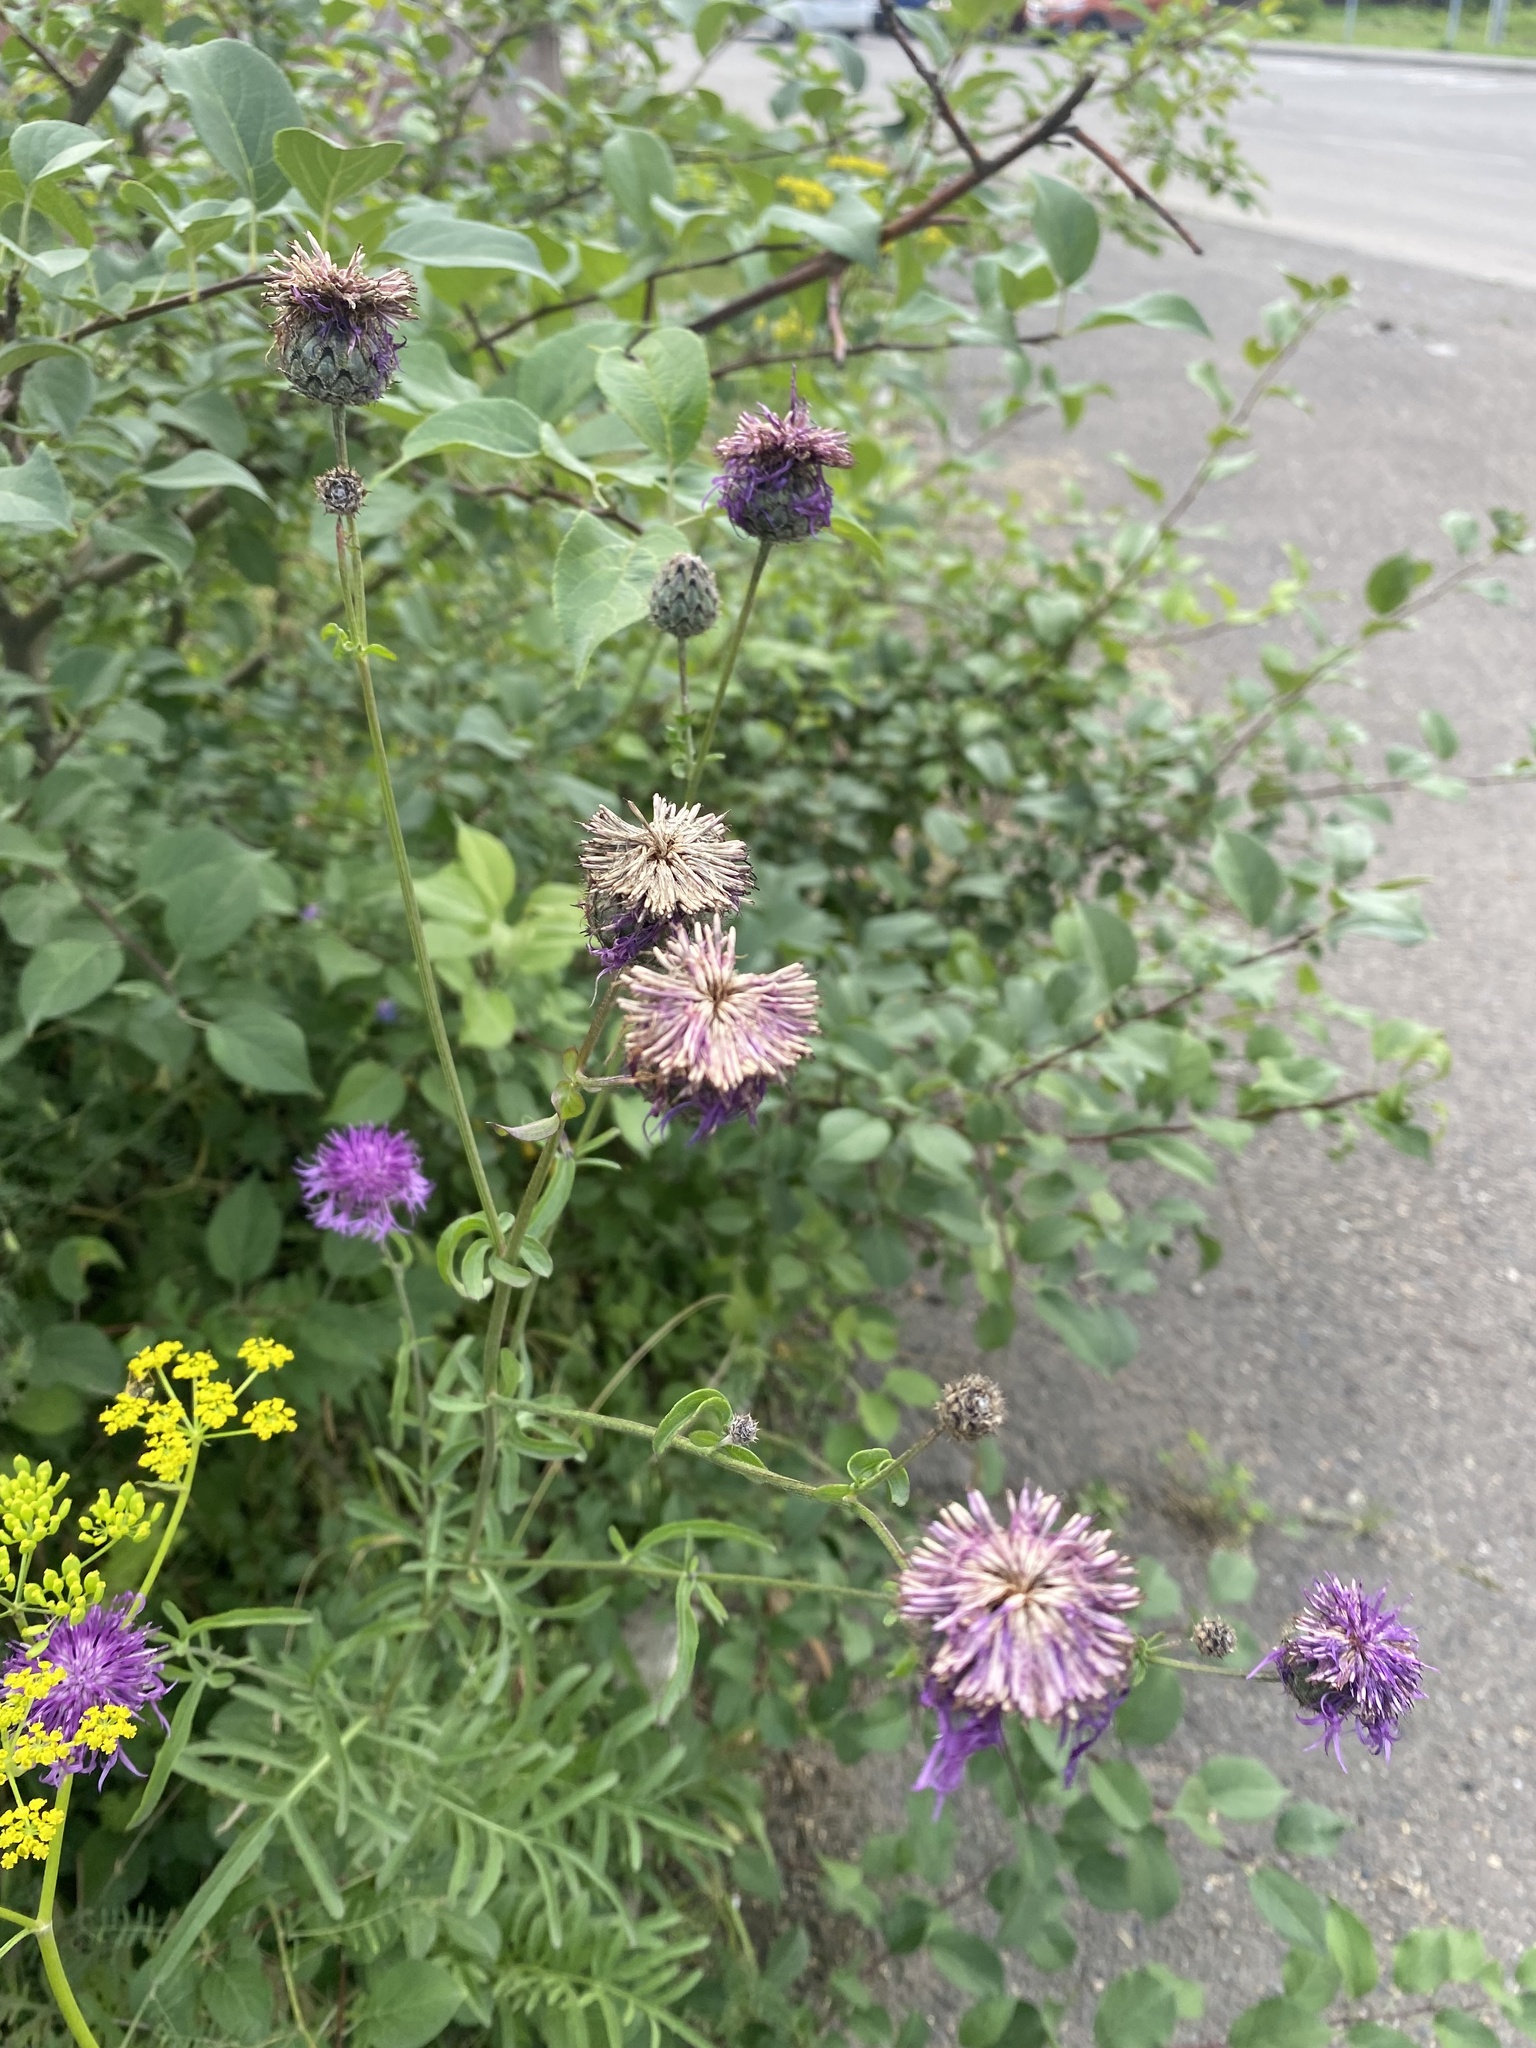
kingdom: Plantae
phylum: Tracheophyta
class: Magnoliopsida
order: Asterales
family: Asteraceae
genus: Centaurea
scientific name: Centaurea scabiosa
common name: Greater knapweed
